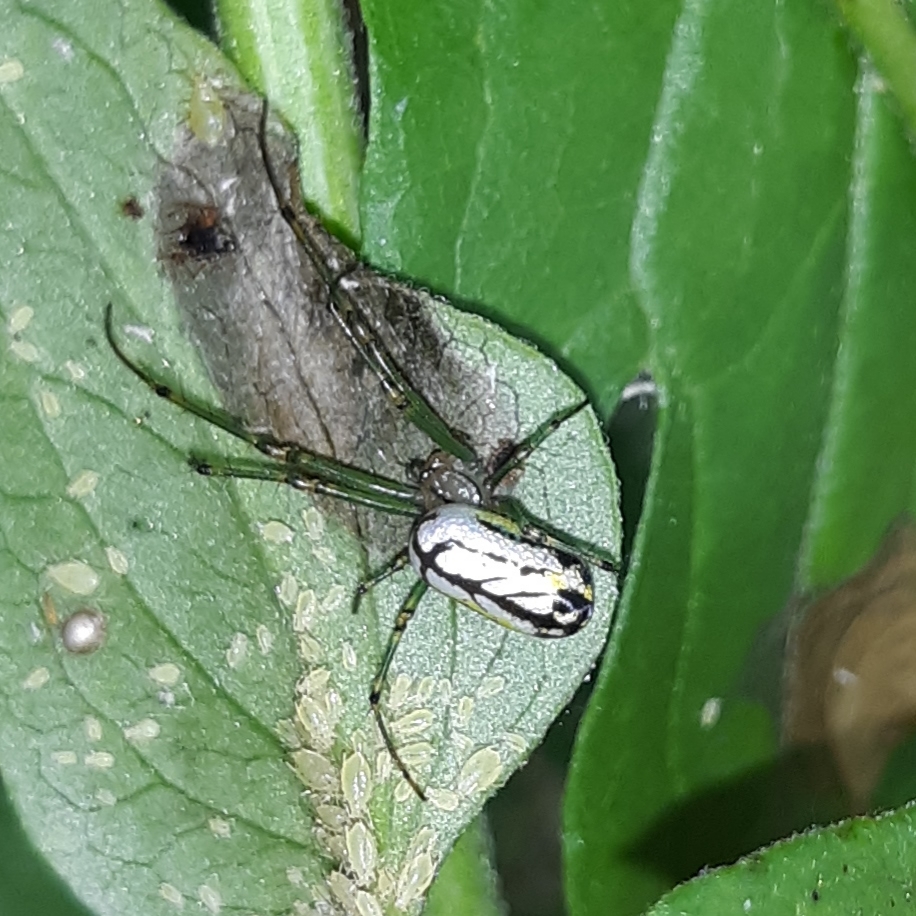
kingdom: Animalia
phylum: Arthropoda
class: Arachnida
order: Araneae
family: Tetragnathidae
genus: Leucauge
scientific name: Leucauge venusta
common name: Longjawed orb weavers
